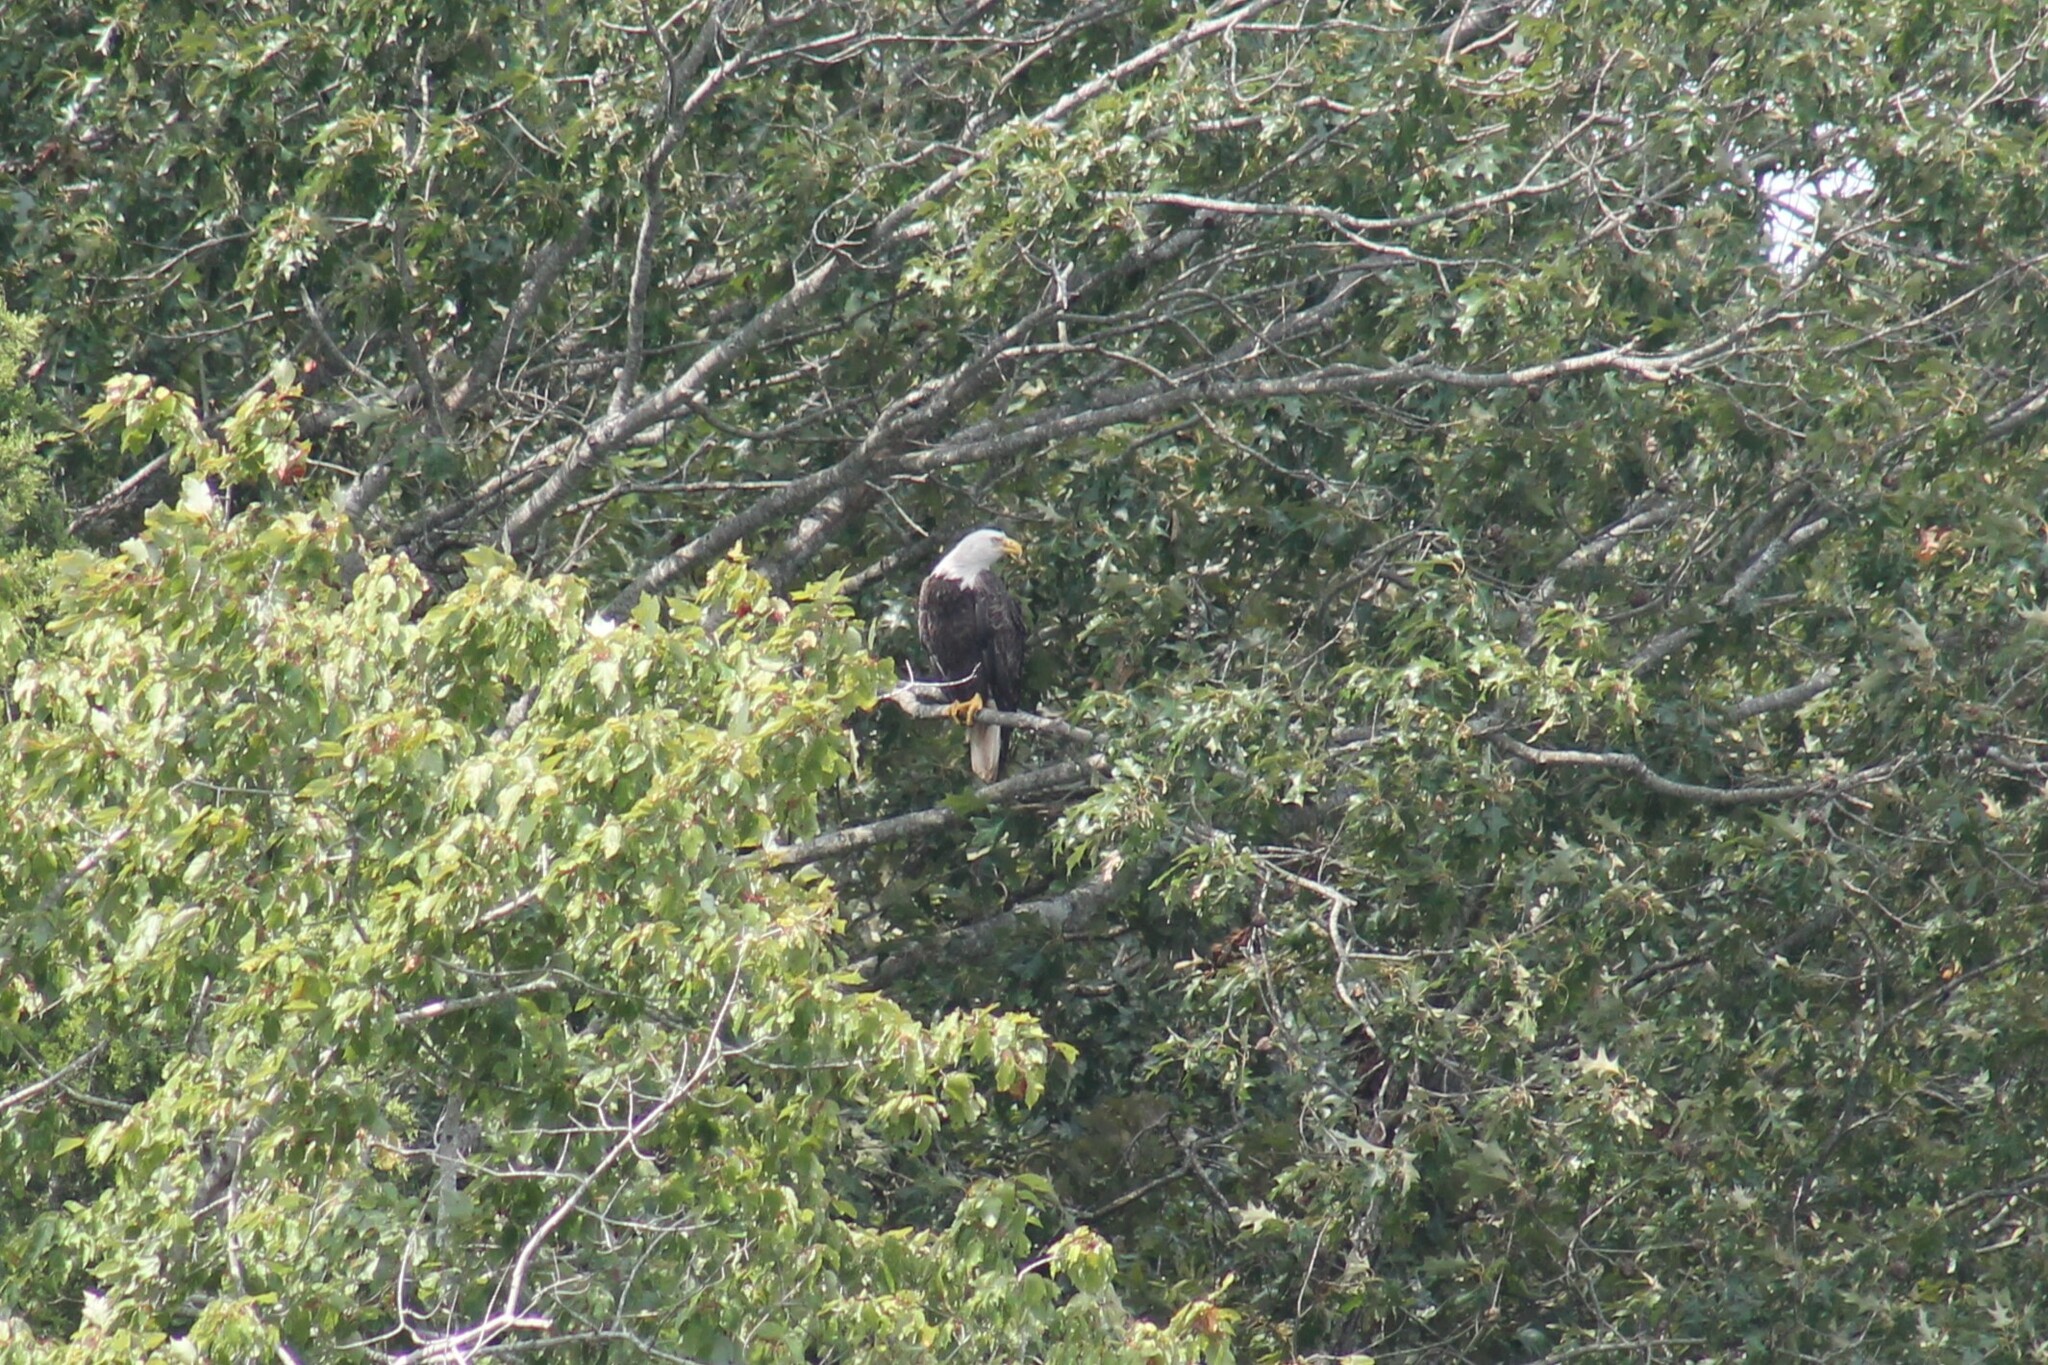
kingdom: Animalia
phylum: Chordata
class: Aves
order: Accipitriformes
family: Accipitridae
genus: Haliaeetus
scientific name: Haliaeetus leucocephalus
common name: Bald eagle
